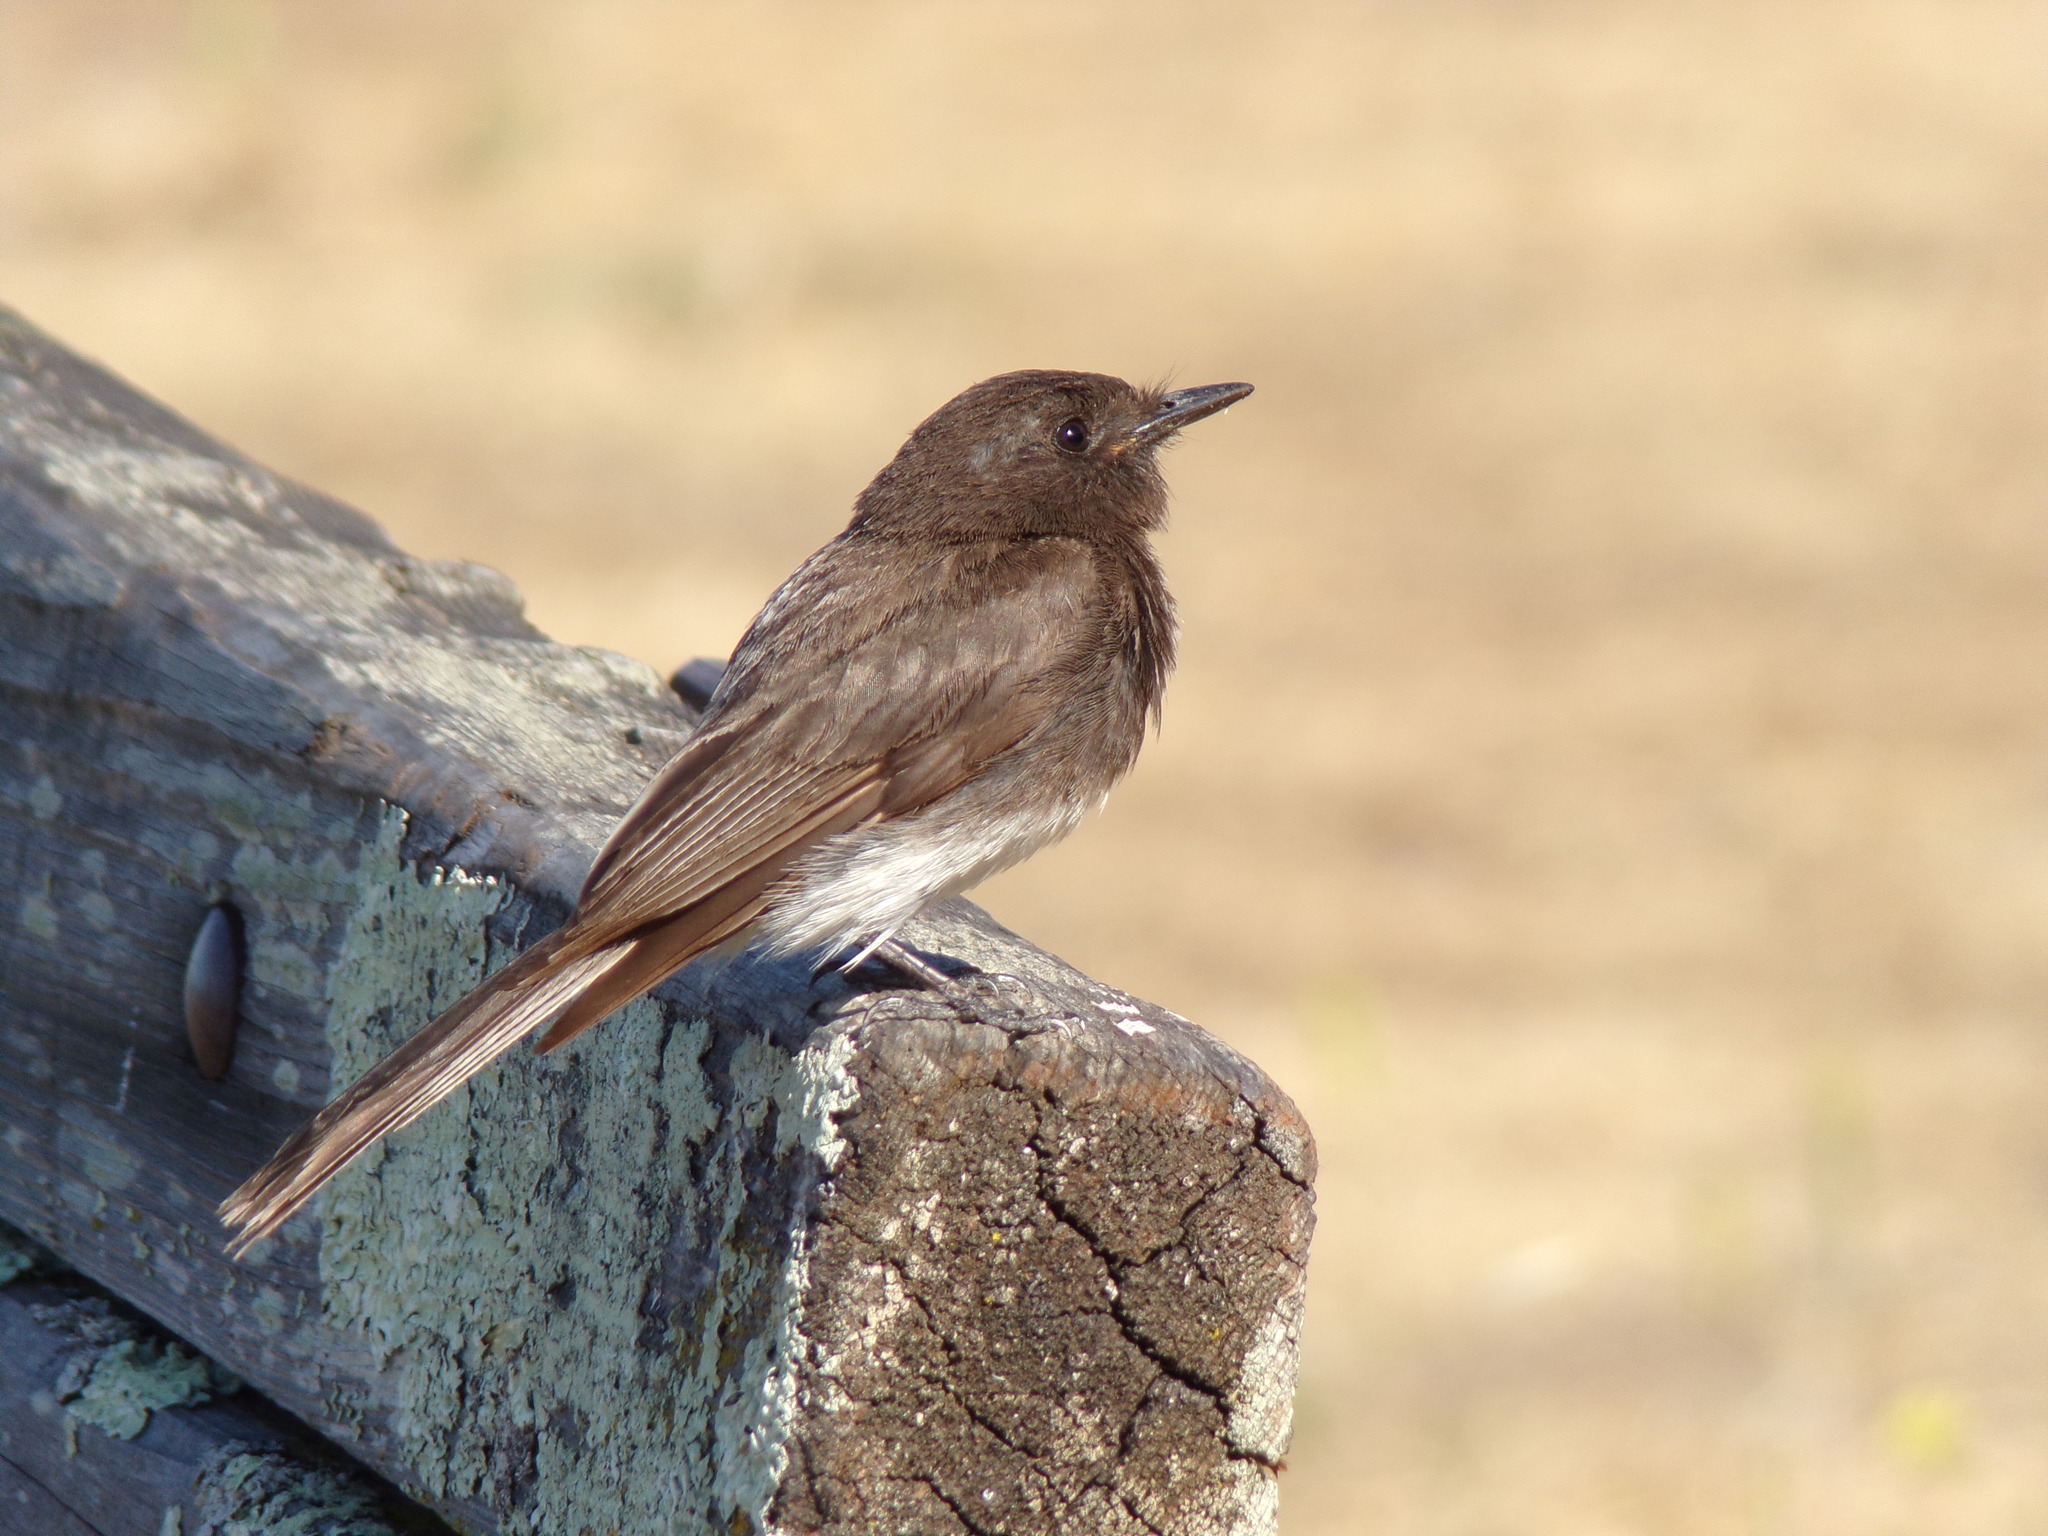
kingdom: Animalia
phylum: Chordata
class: Aves
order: Passeriformes
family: Tyrannidae
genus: Sayornis
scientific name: Sayornis nigricans
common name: Black phoebe
